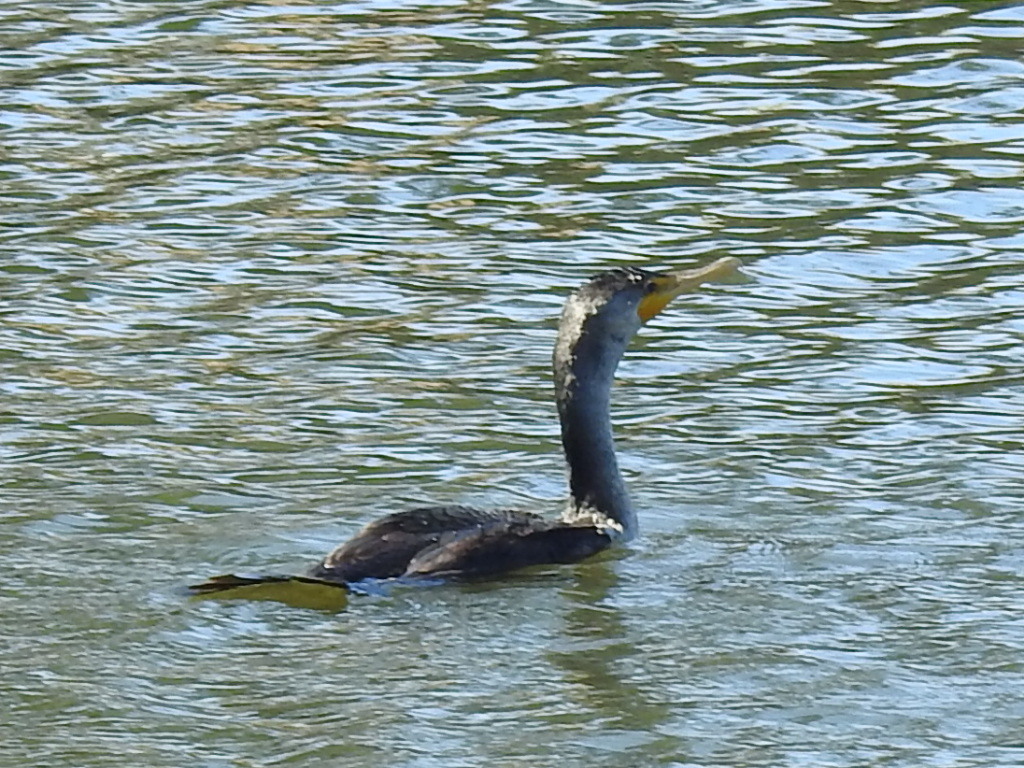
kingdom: Animalia
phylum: Chordata
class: Aves
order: Suliformes
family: Phalacrocoracidae
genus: Phalacrocorax
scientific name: Phalacrocorax auritus
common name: Double-crested cormorant
